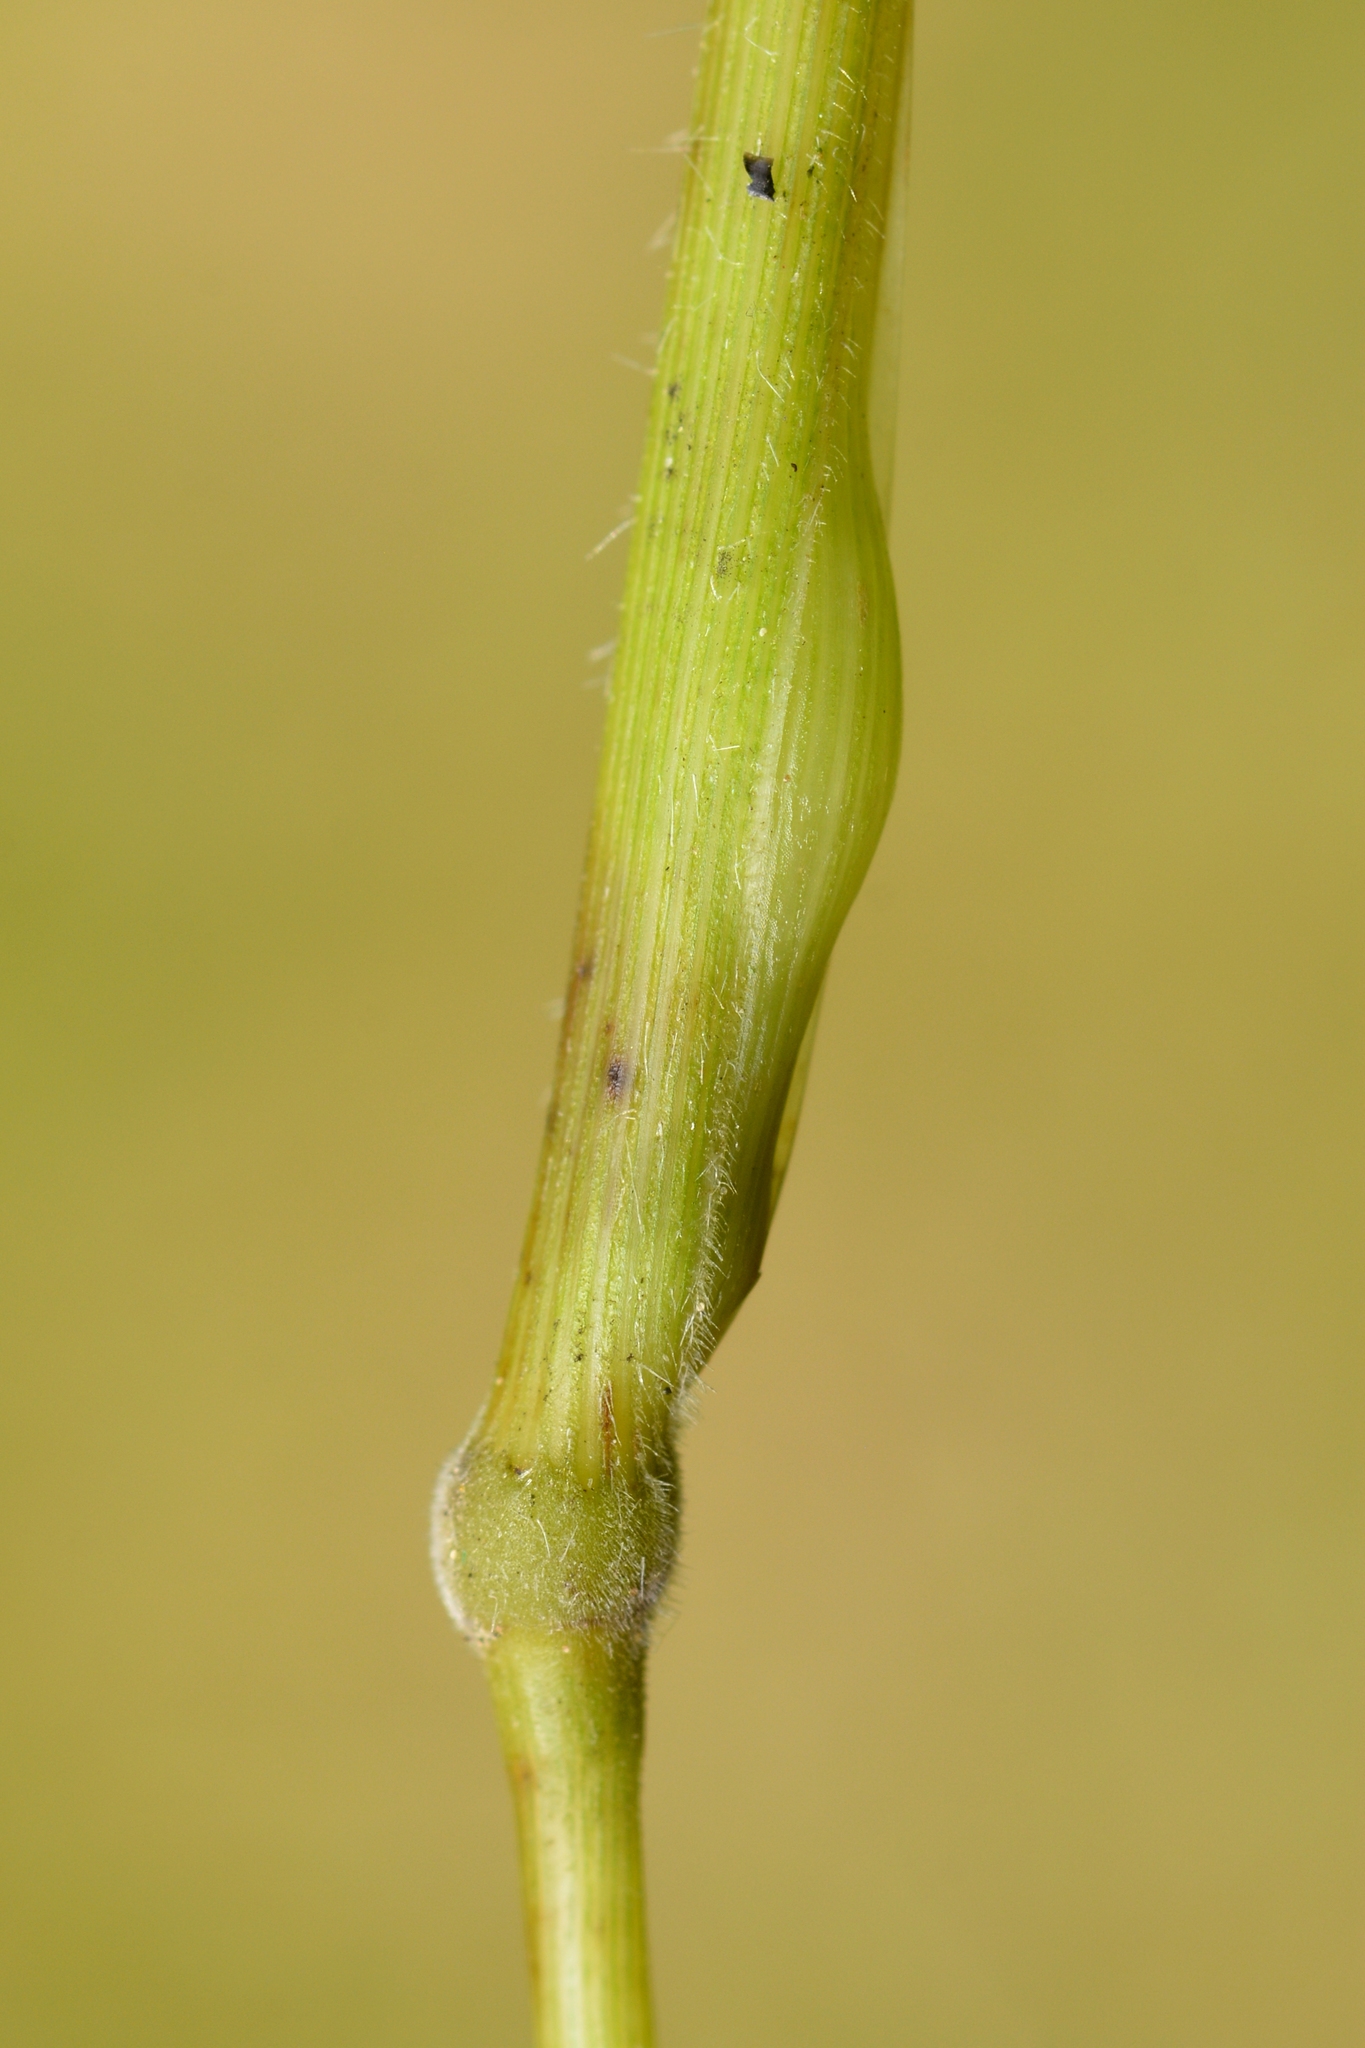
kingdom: Animalia
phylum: Arthropoda
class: Insecta
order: Diptera
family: Cecidomyiidae
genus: Mayetiola
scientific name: Mayetiola hellwigi
